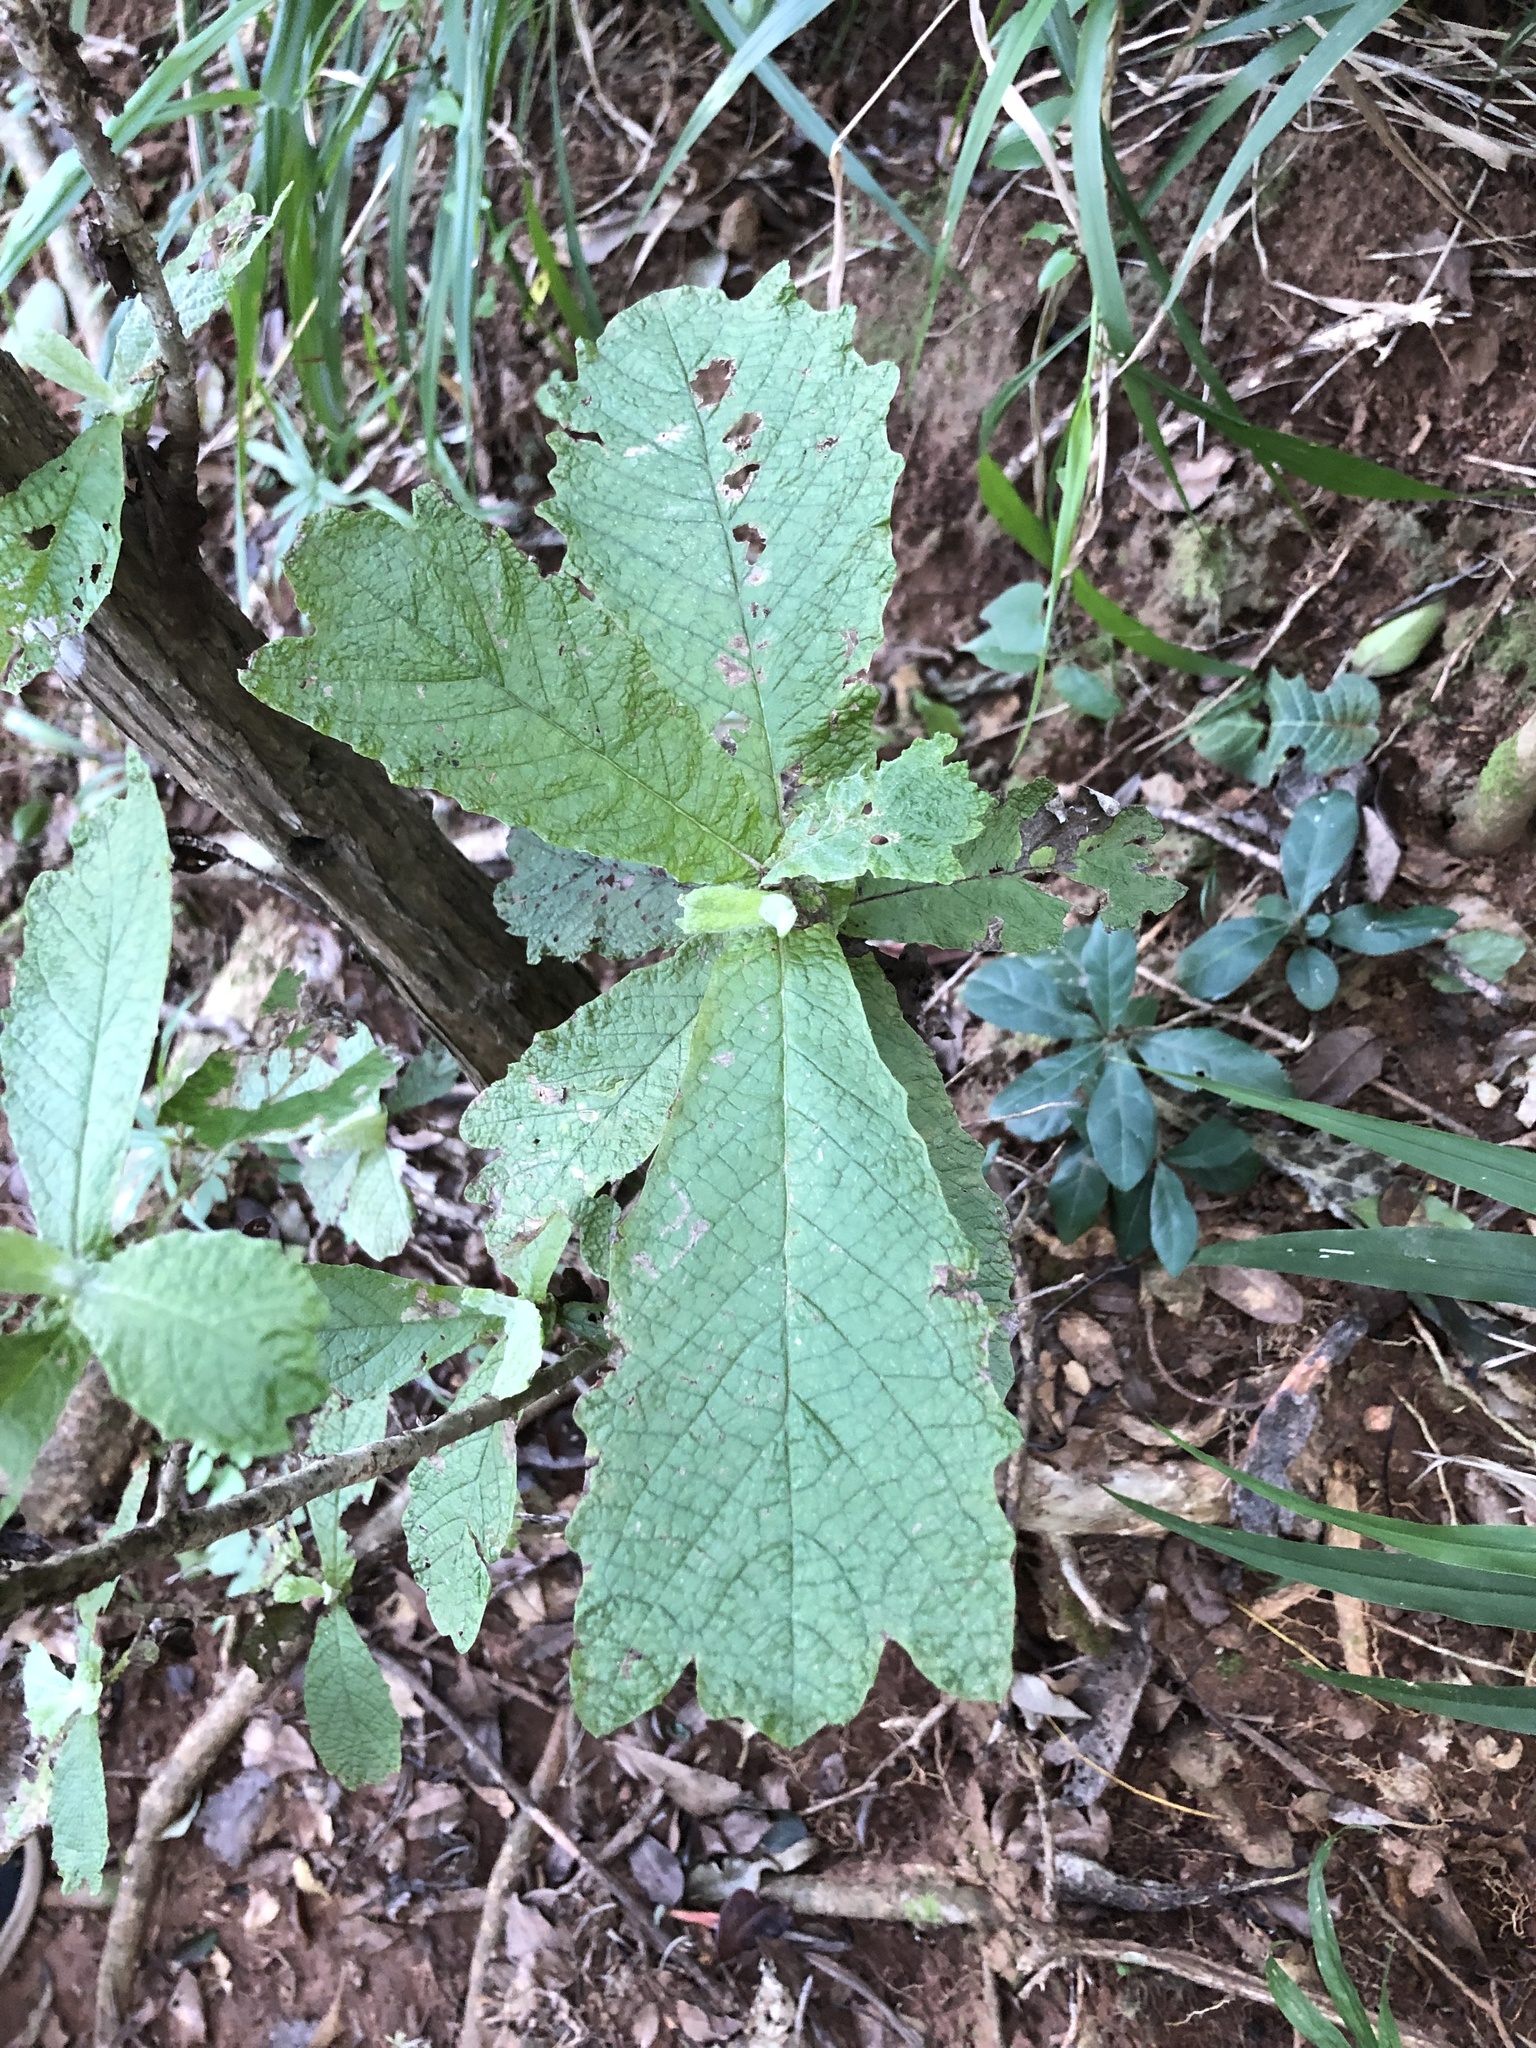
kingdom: Plantae
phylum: Tracheophyta
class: Magnoliopsida
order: Asterales
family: Asteraceae
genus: Tarchonanthus
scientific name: Tarchonanthus trilobus
